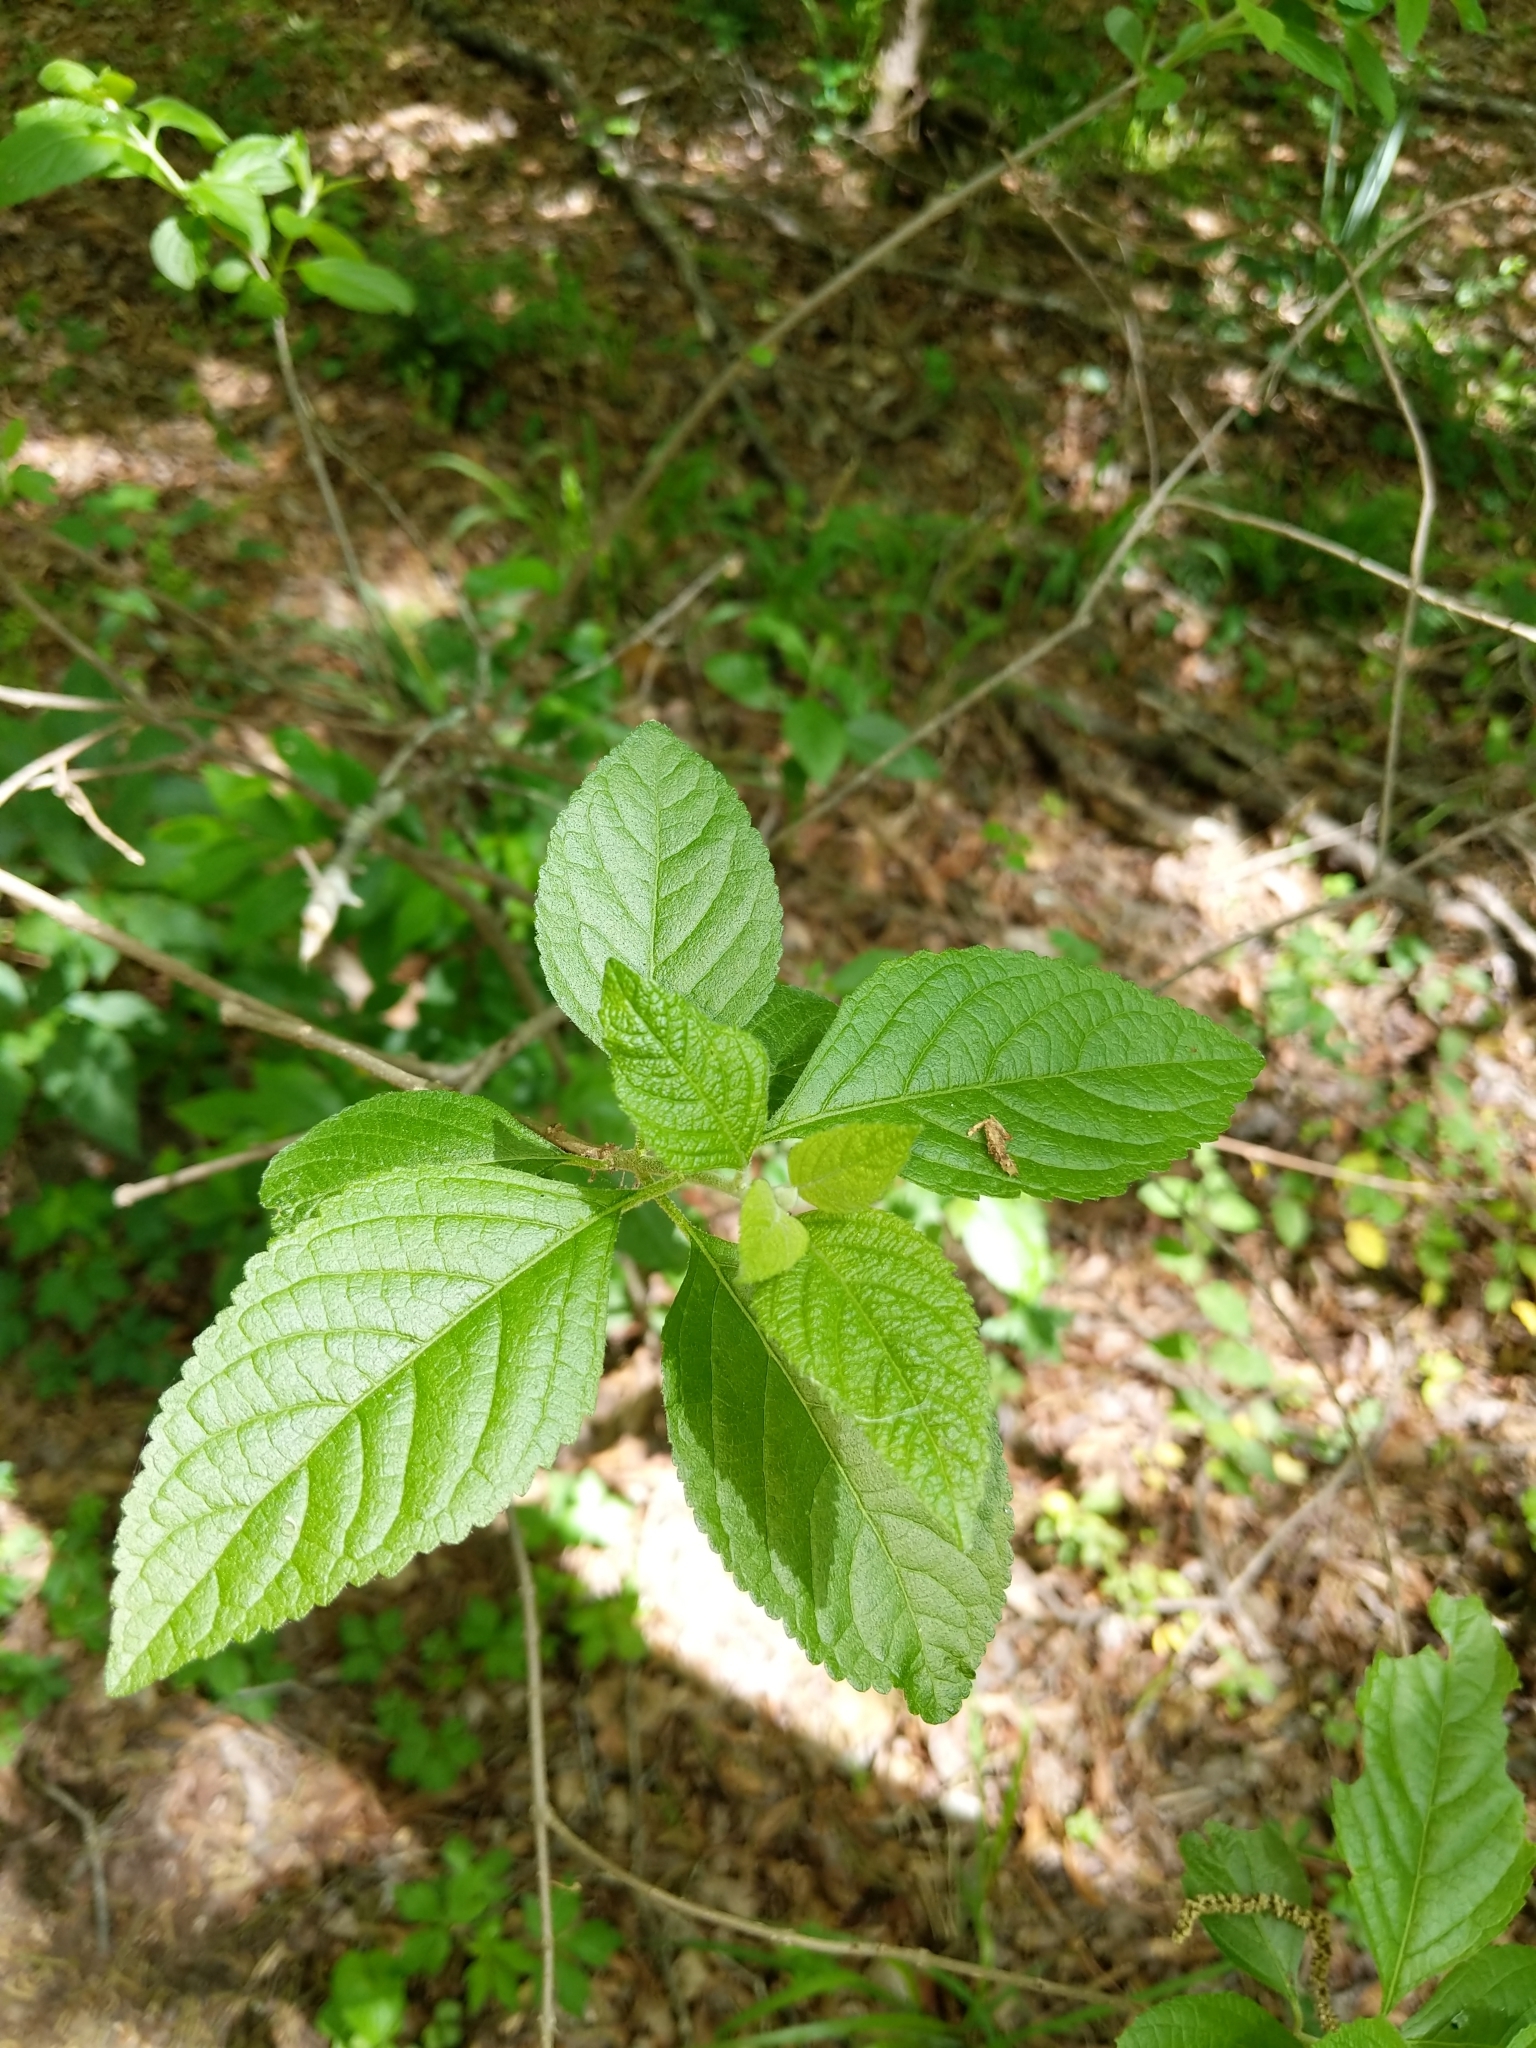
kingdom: Plantae
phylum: Tracheophyta
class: Magnoliopsida
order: Lamiales
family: Lamiaceae
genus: Callicarpa
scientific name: Callicarpa americana
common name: American beautyberry
